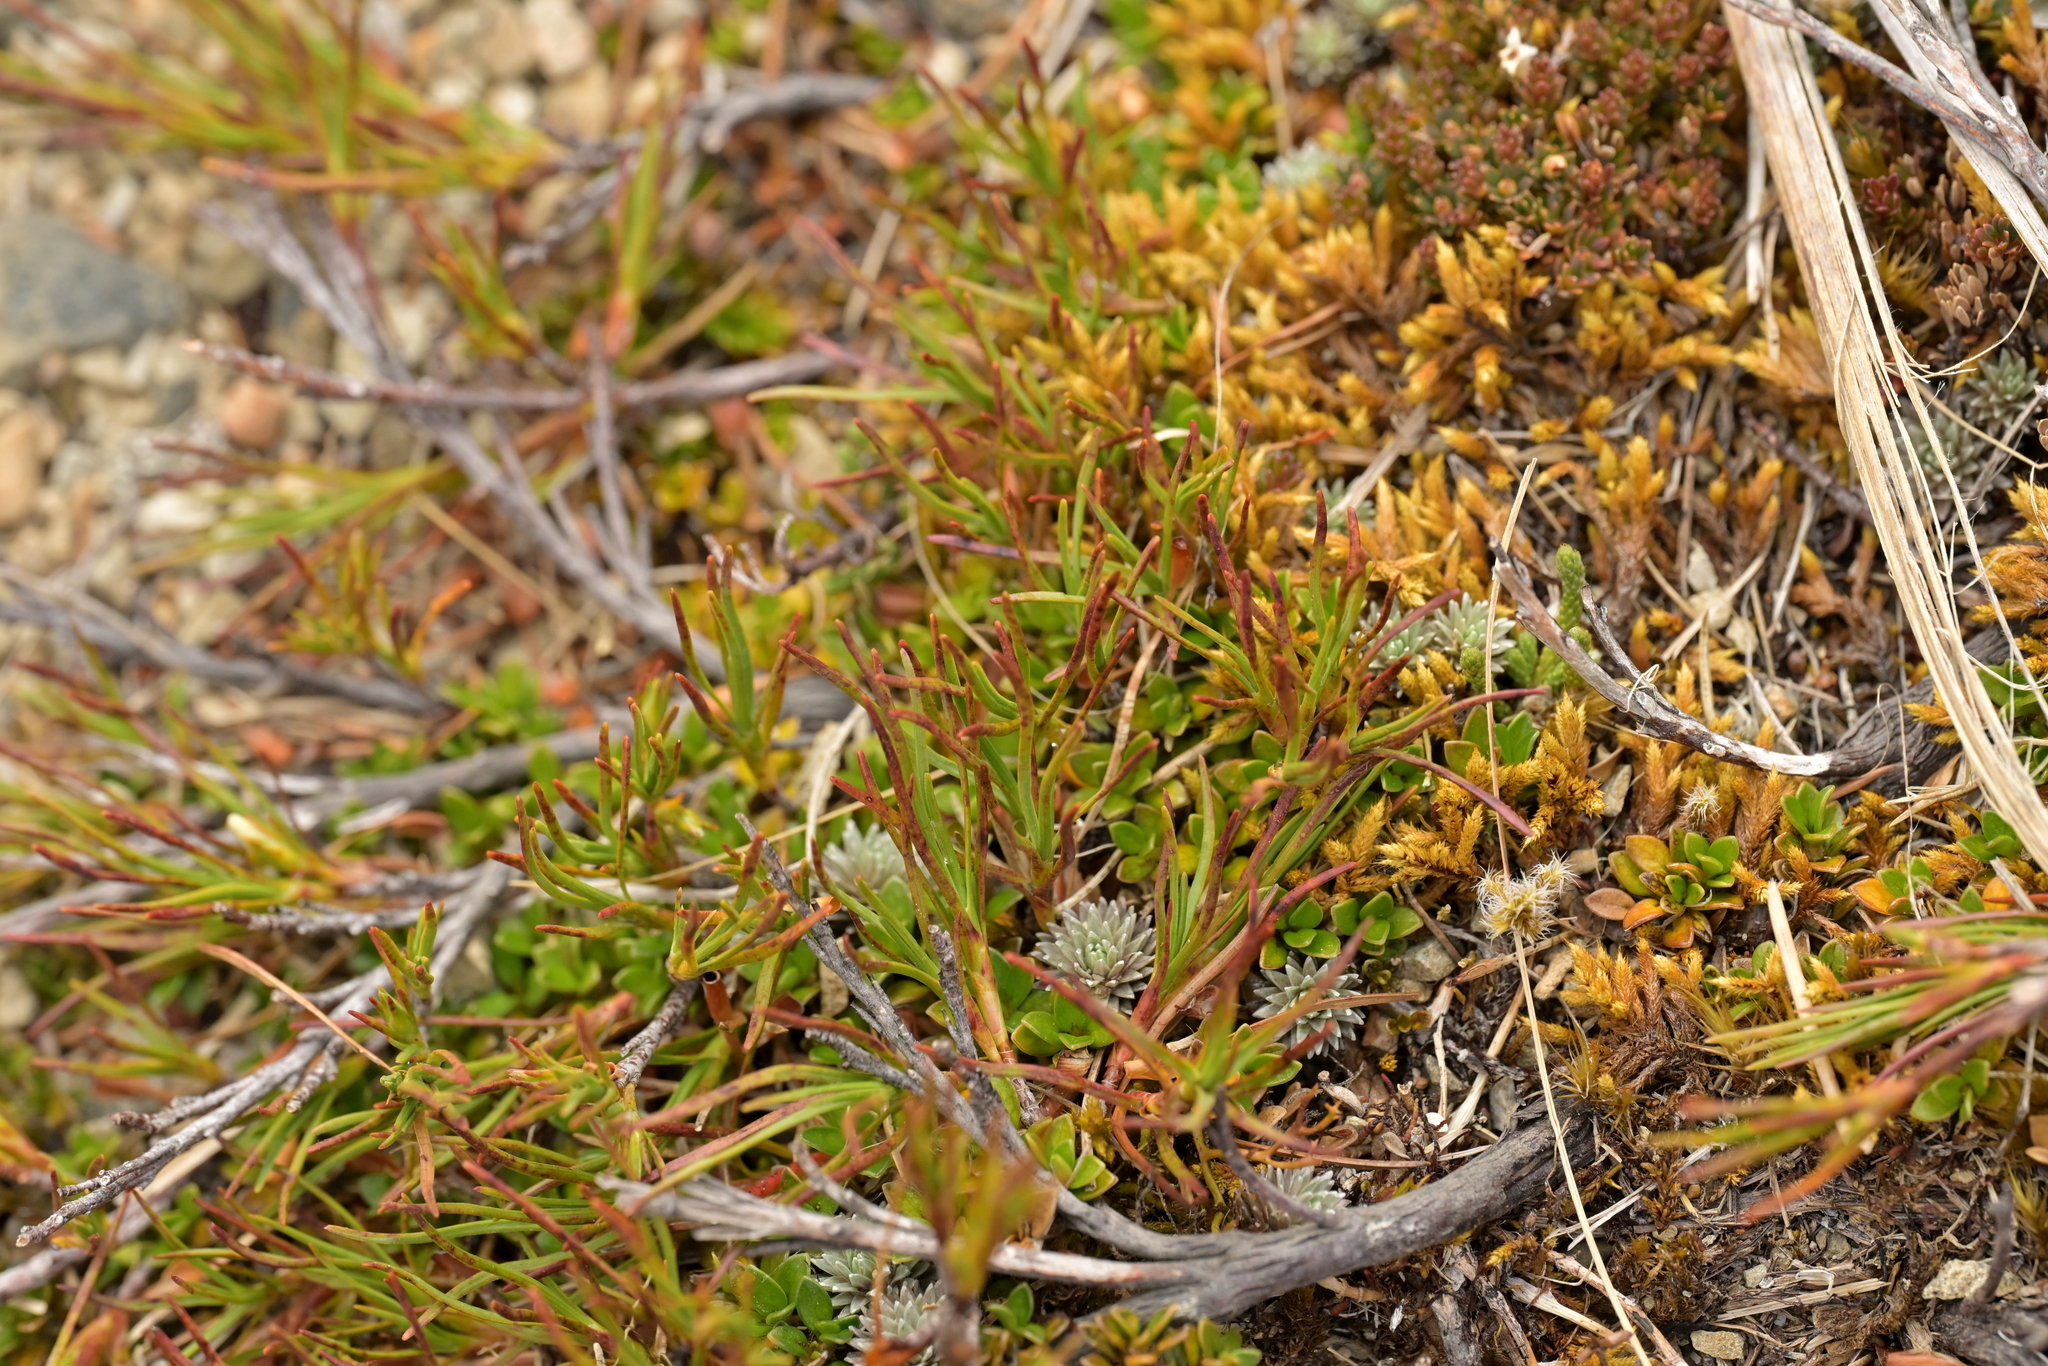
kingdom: Plantae
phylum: Tracheophyta
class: Magnoliopsida
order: Ericales
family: Ericaceae
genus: Dracophyllum
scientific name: Dracophyllum rosmarinifolium
